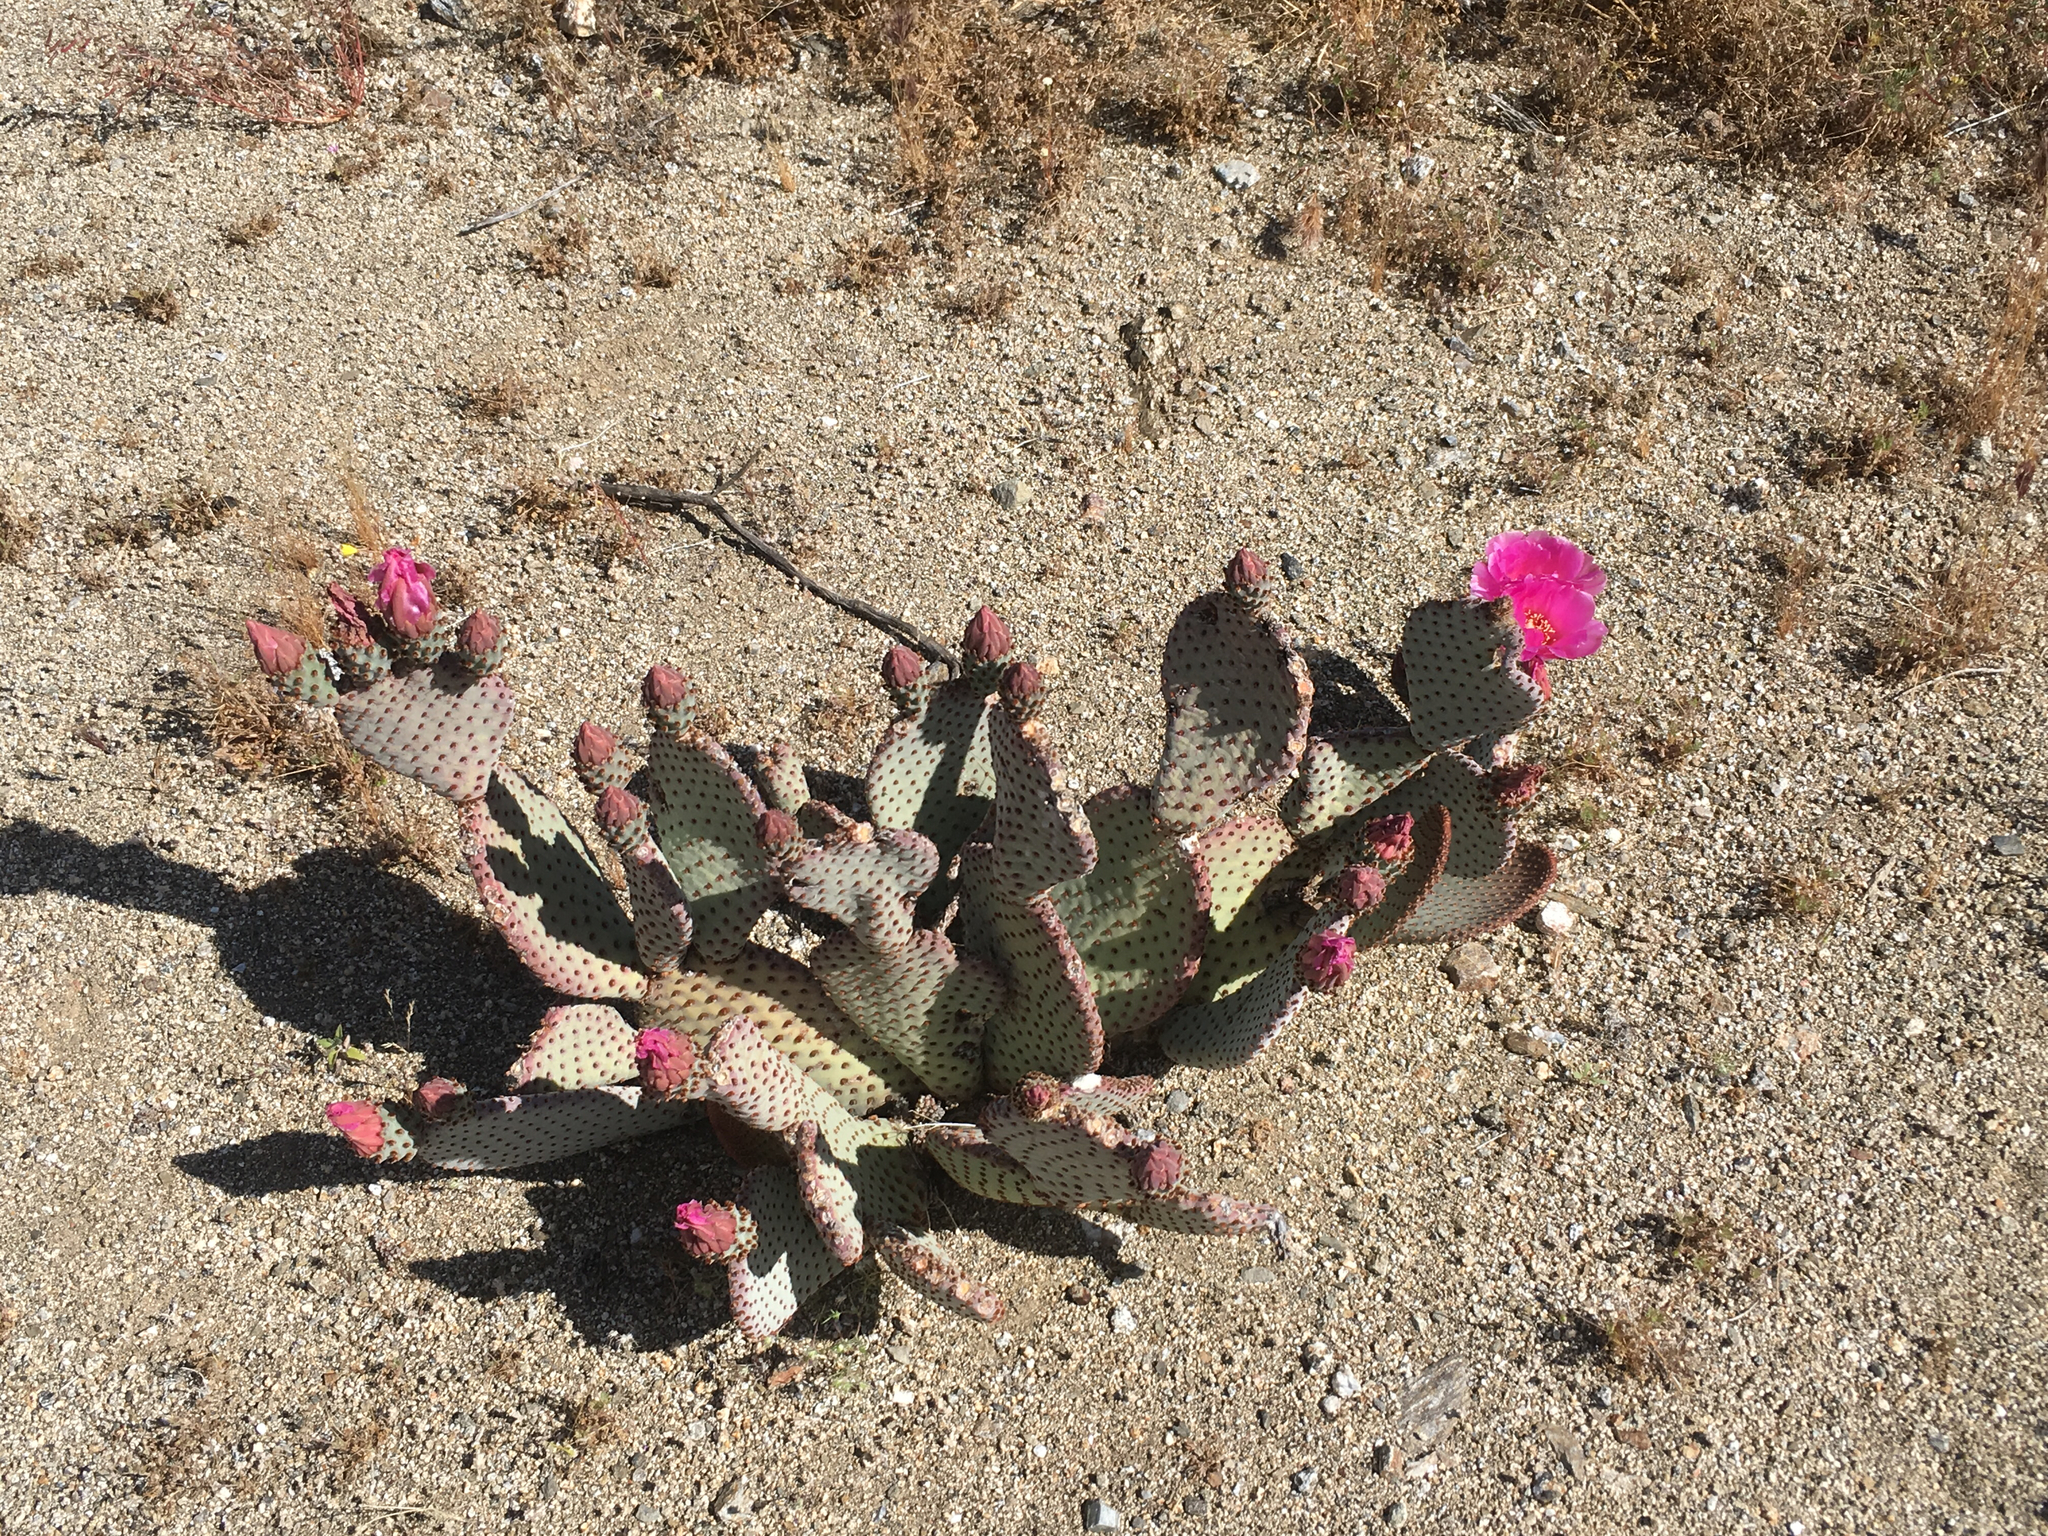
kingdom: Plantae
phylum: Tracheophyta
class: Magnoliopsida
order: Caryophyllales
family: Cactaceae
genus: Opuntia
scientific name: Opuntia basilaris
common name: Beavertail prickly-pear
